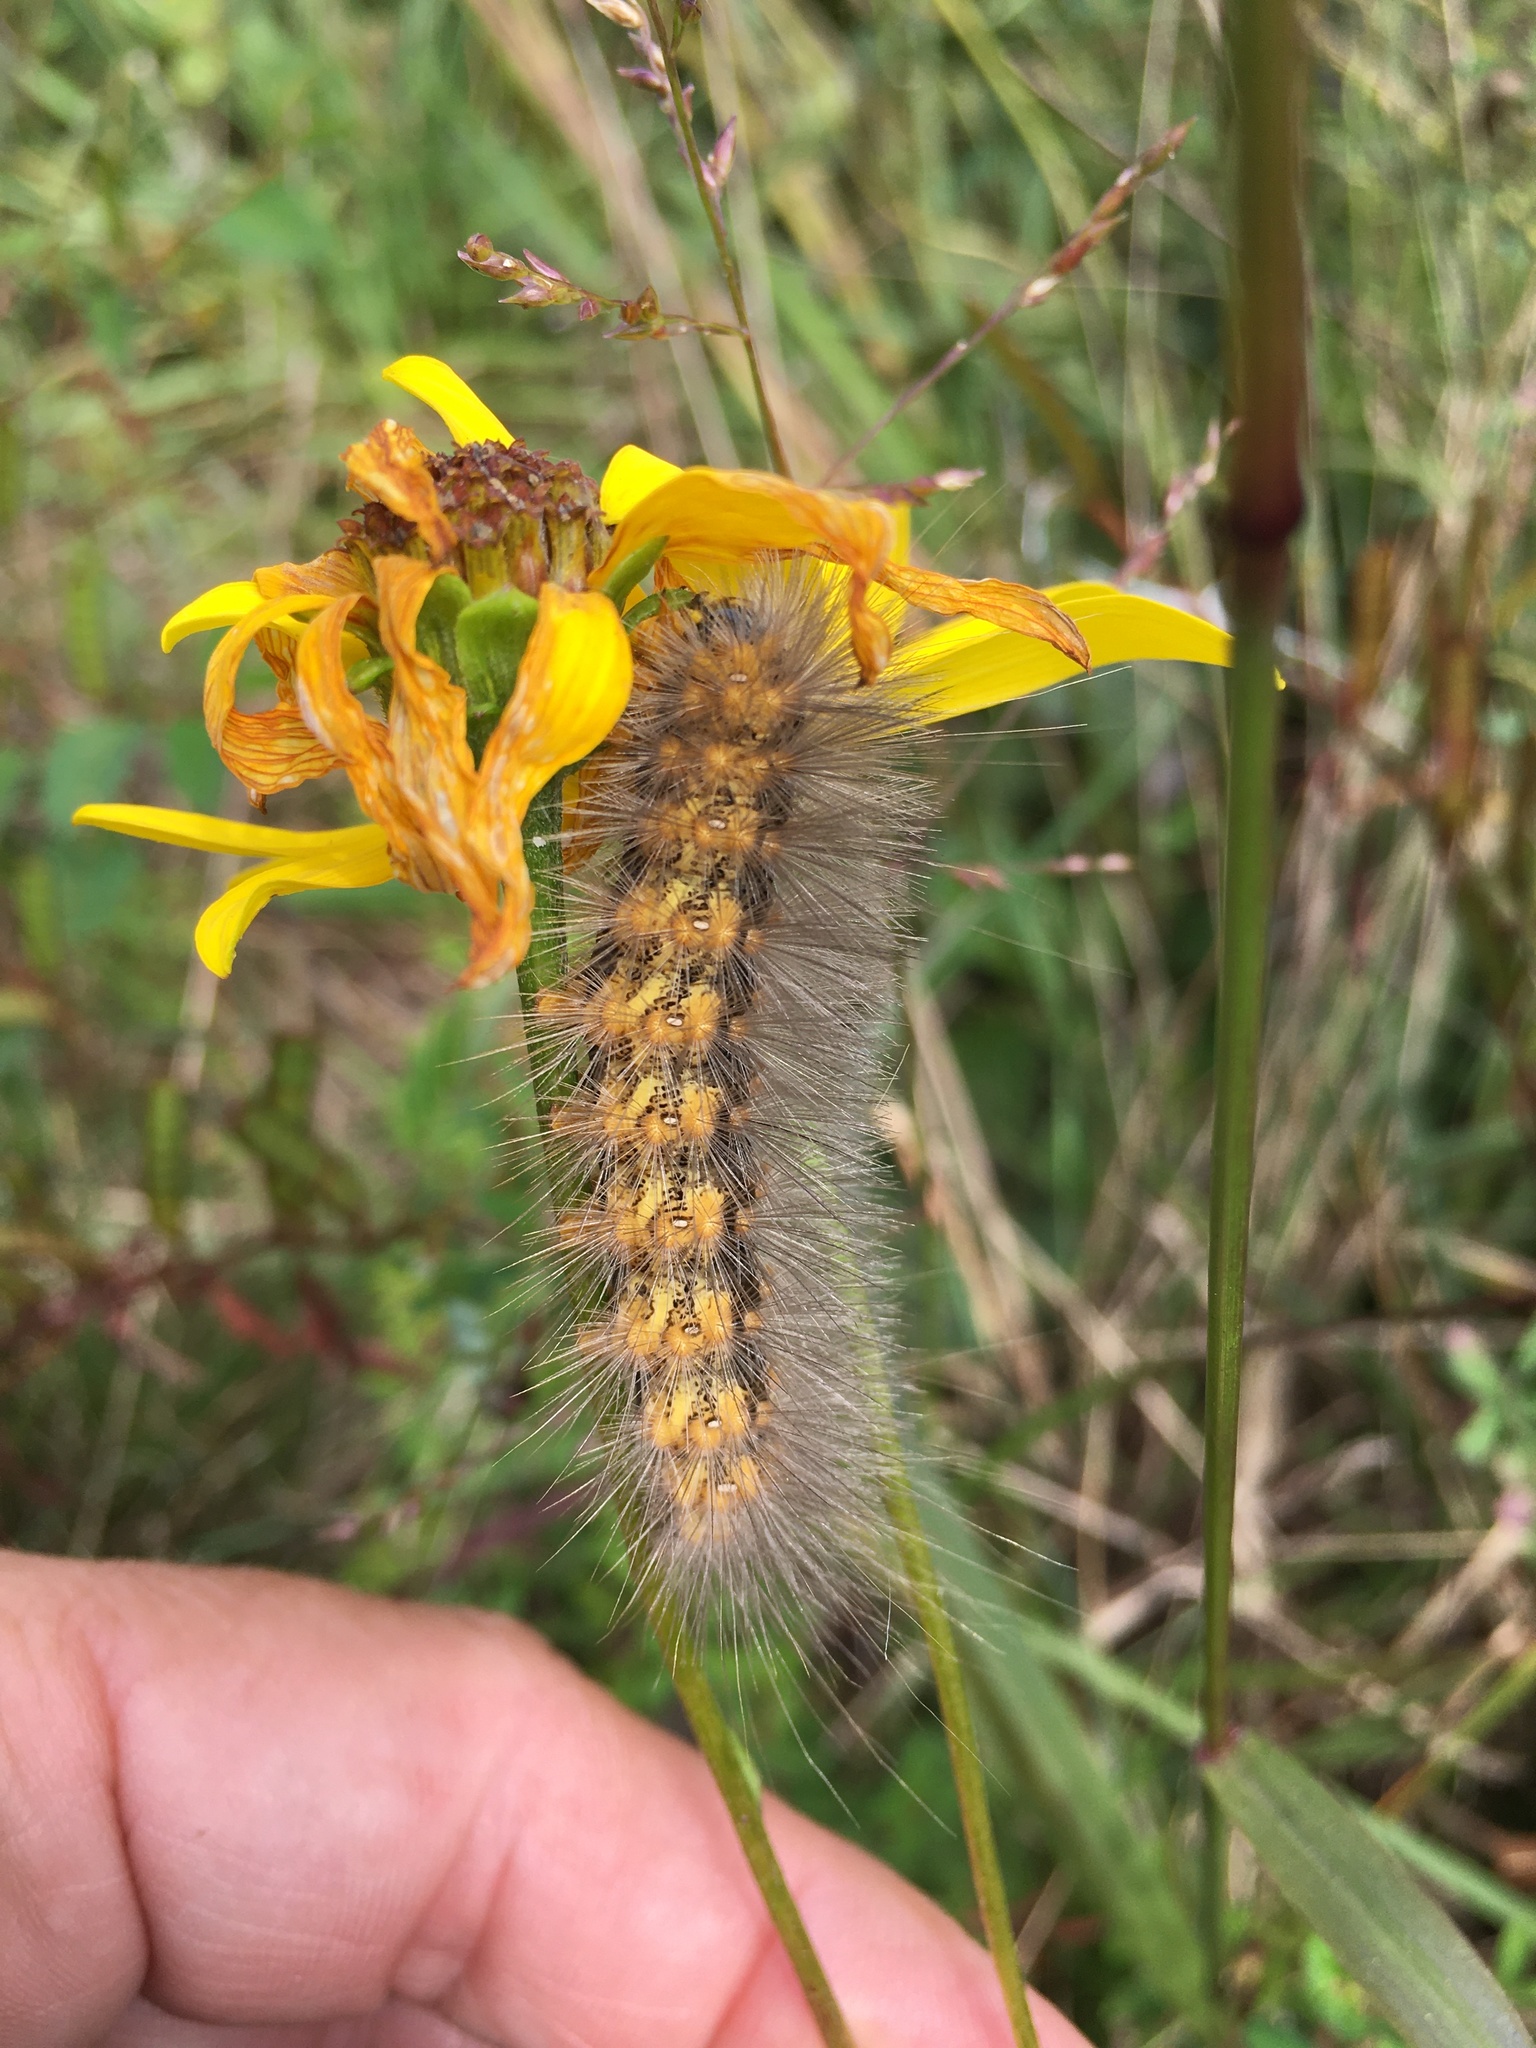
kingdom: Animalia
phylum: Arthropoda
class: Insecta
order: Lepidoptera
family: Erebidae
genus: Estigmene
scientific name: Estigmene acrea
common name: Salt marsh moth
